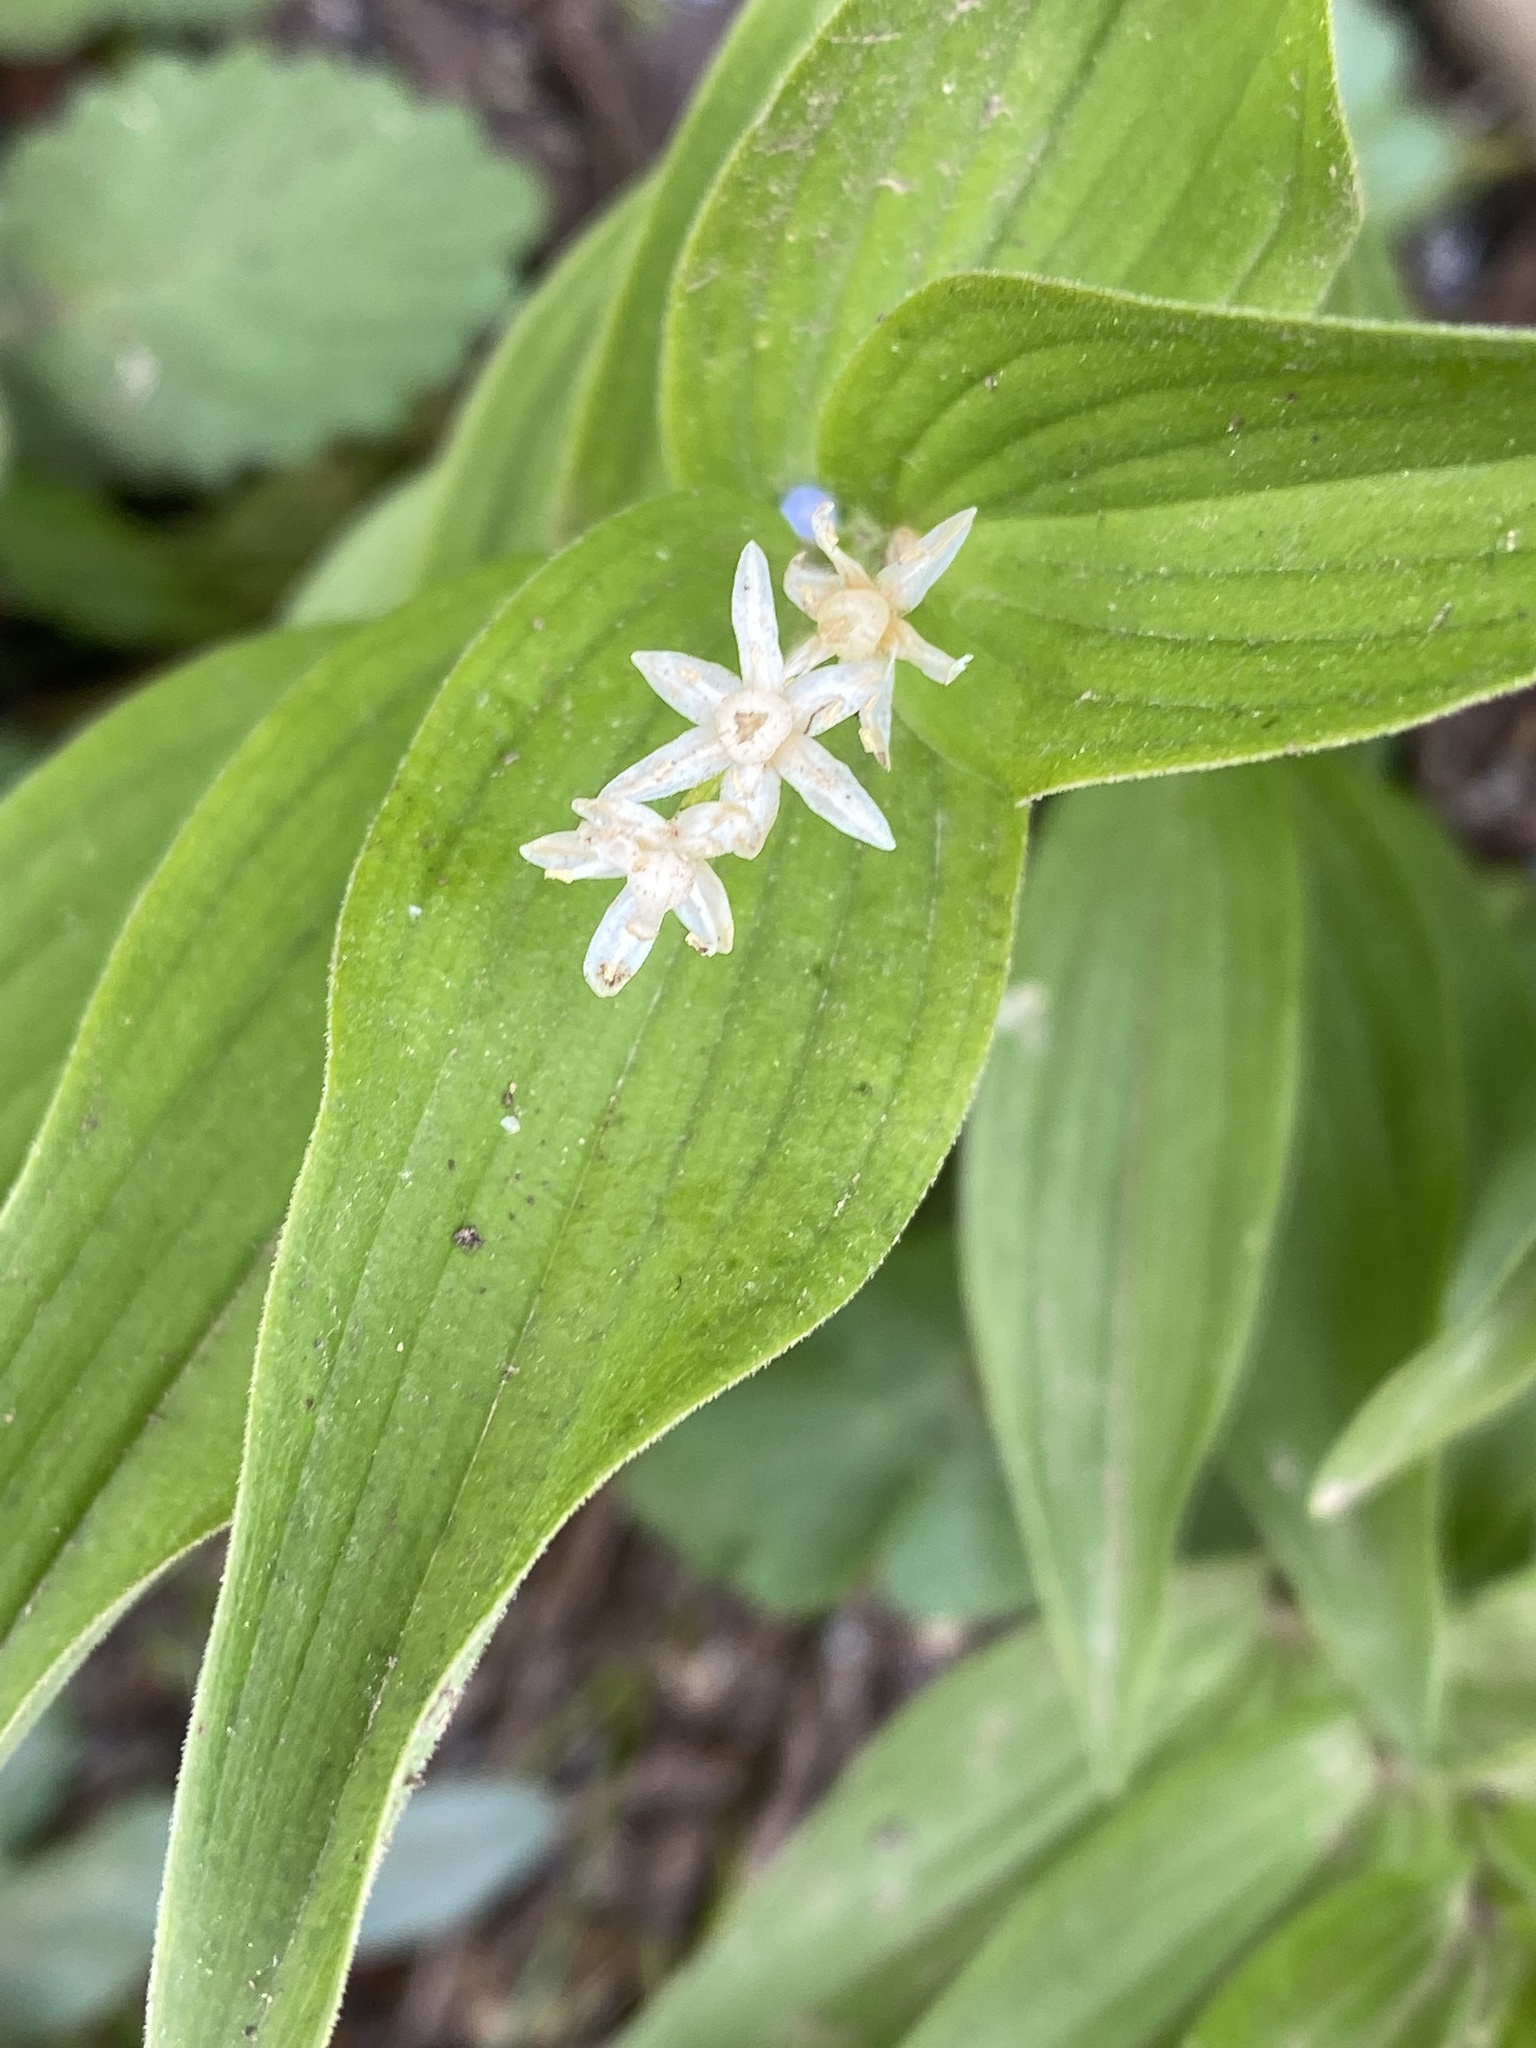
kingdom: Plantae
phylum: Tracheophyta
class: Liliopsida
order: Asparagales
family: Asparagaceae
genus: Maianthemum
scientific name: Maianthemum stellatum
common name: Little false solomon's seal
